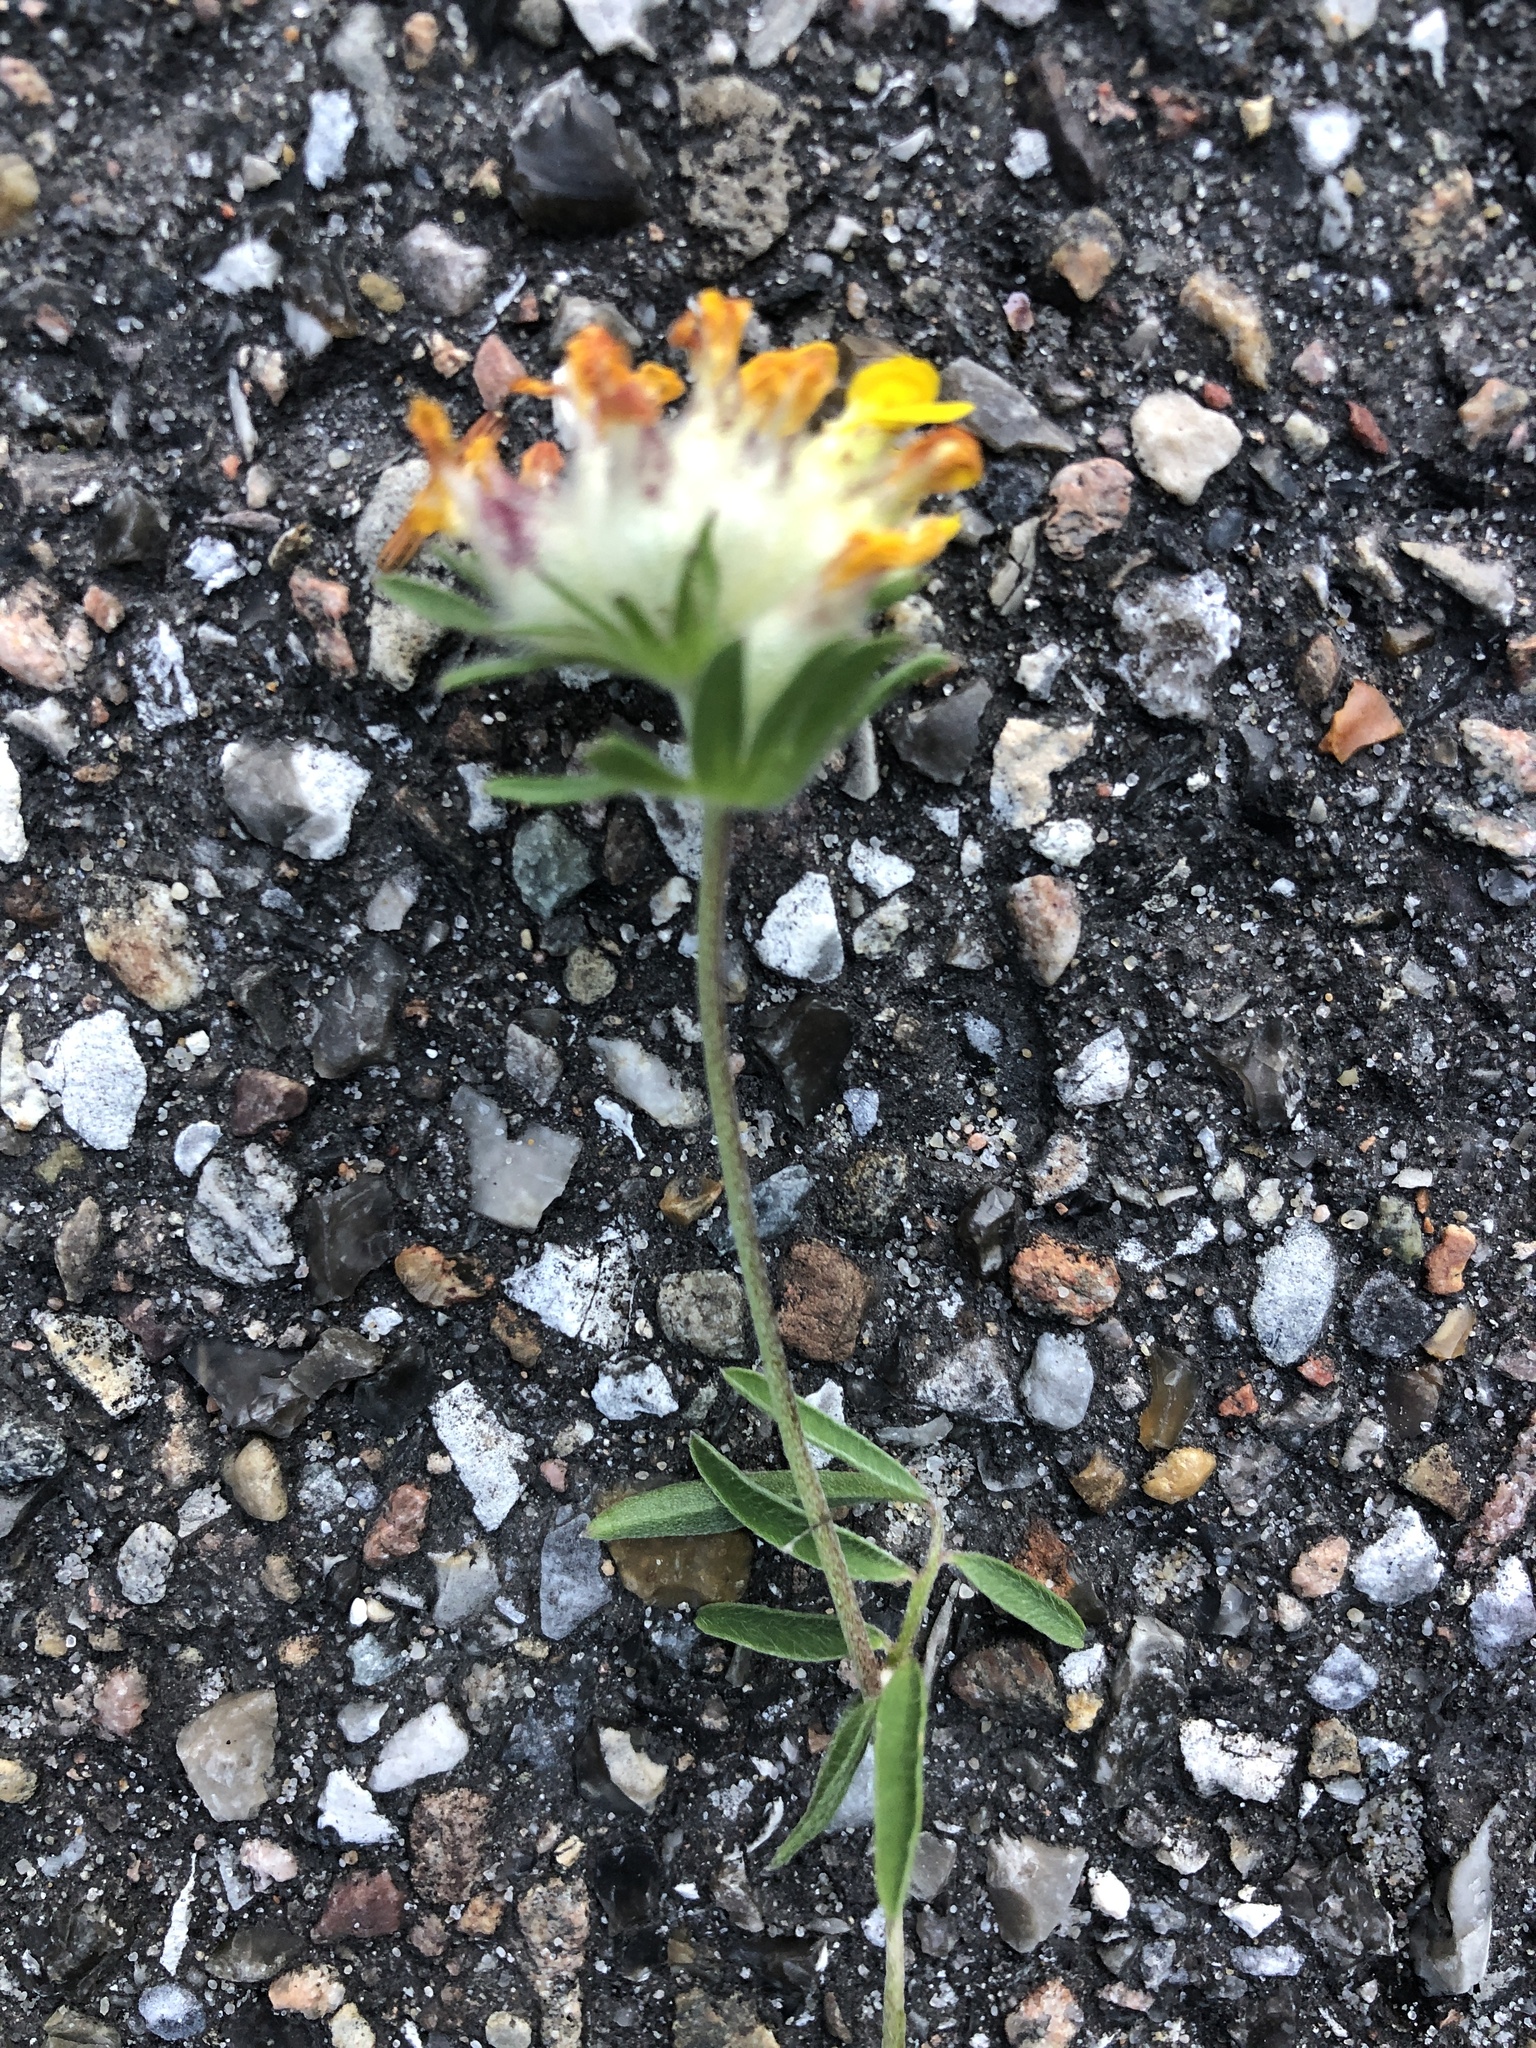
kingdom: Plantae
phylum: Tracheophyta
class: Magnoliopsida
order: Fabales
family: Fabaceae
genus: Anthyllis
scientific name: Anthyllis vulneraria
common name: Kidney vetch
